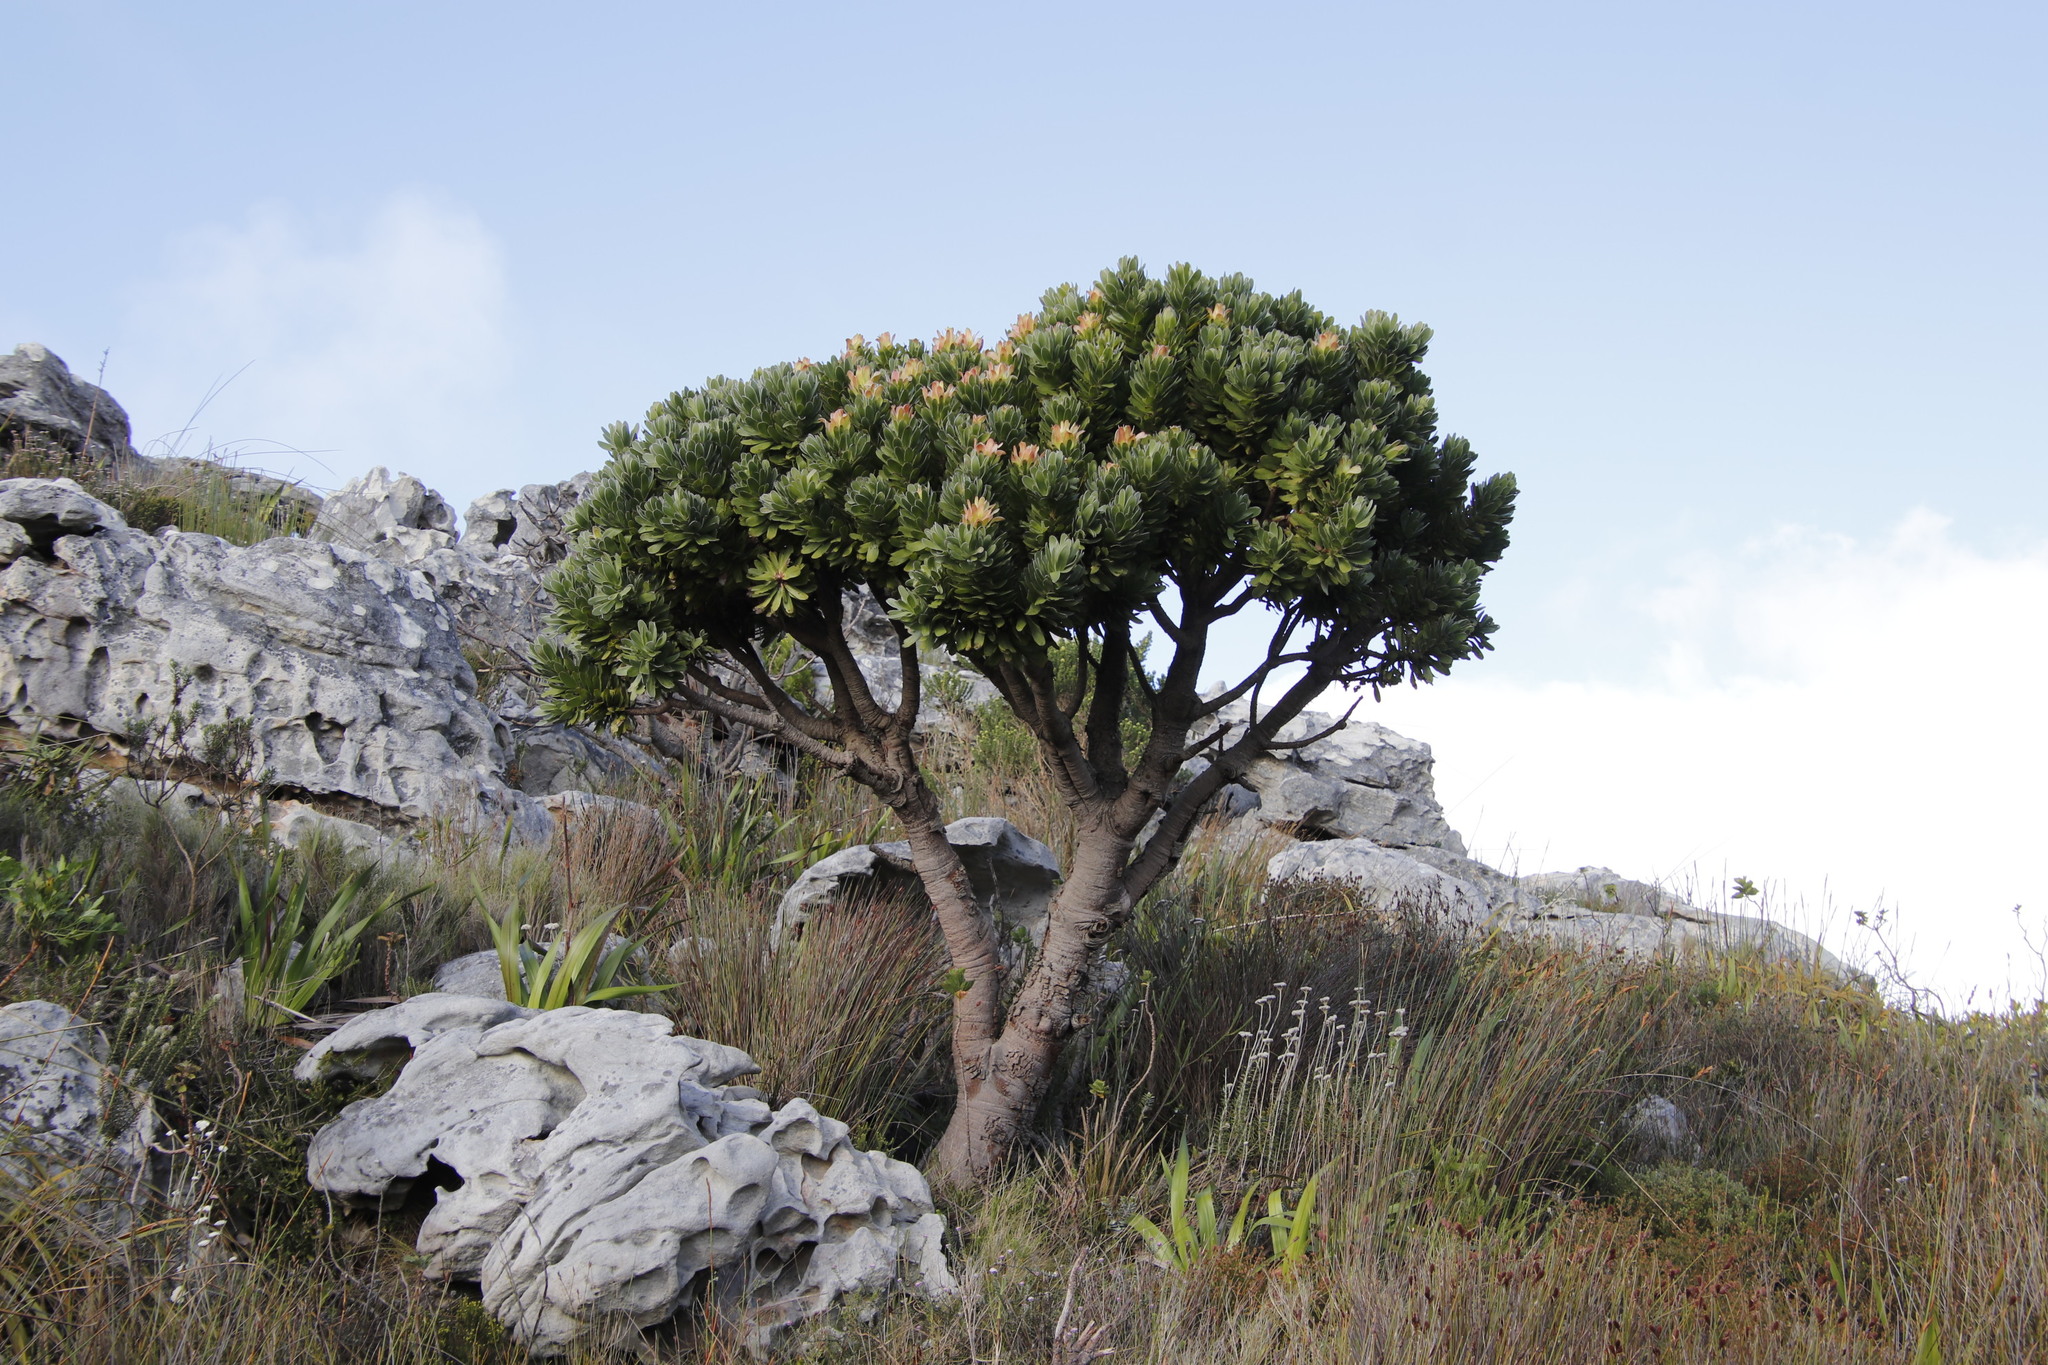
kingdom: Plantae
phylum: Tracheophyta
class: Magnoliopsida
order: Proteales
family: Proteaceae
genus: Mimetes
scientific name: Mimetes fimbriifolius
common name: Fringed bottlebrush
